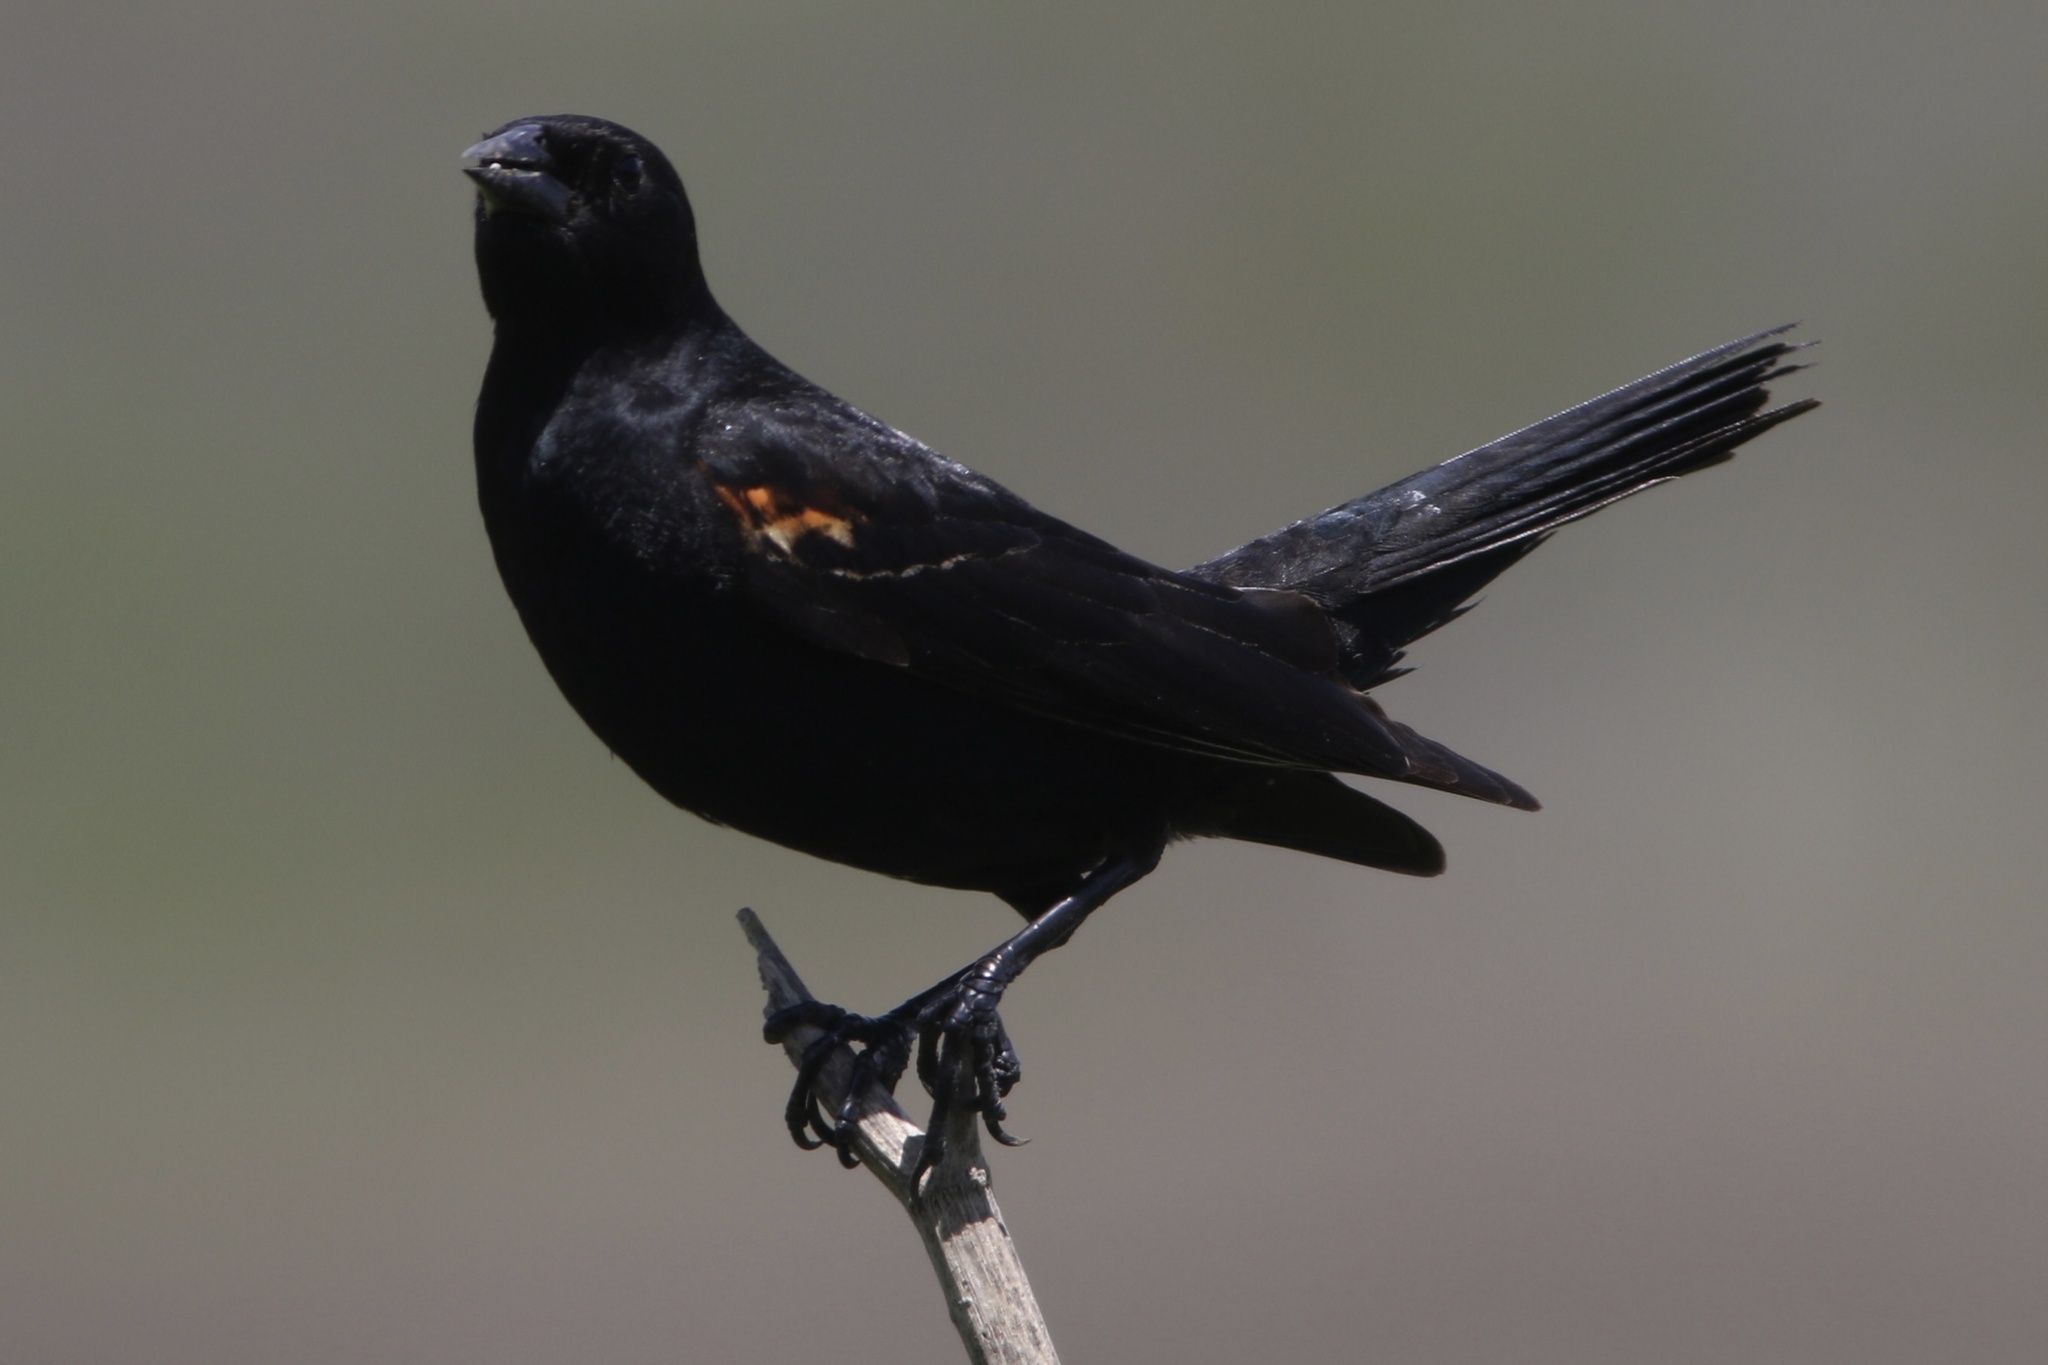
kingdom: Animalia
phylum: Chordata
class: Aves
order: Passeriformes
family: Icteridae
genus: Agelaius
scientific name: Agelaius phoeniceus
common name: Red-winged blackbird
